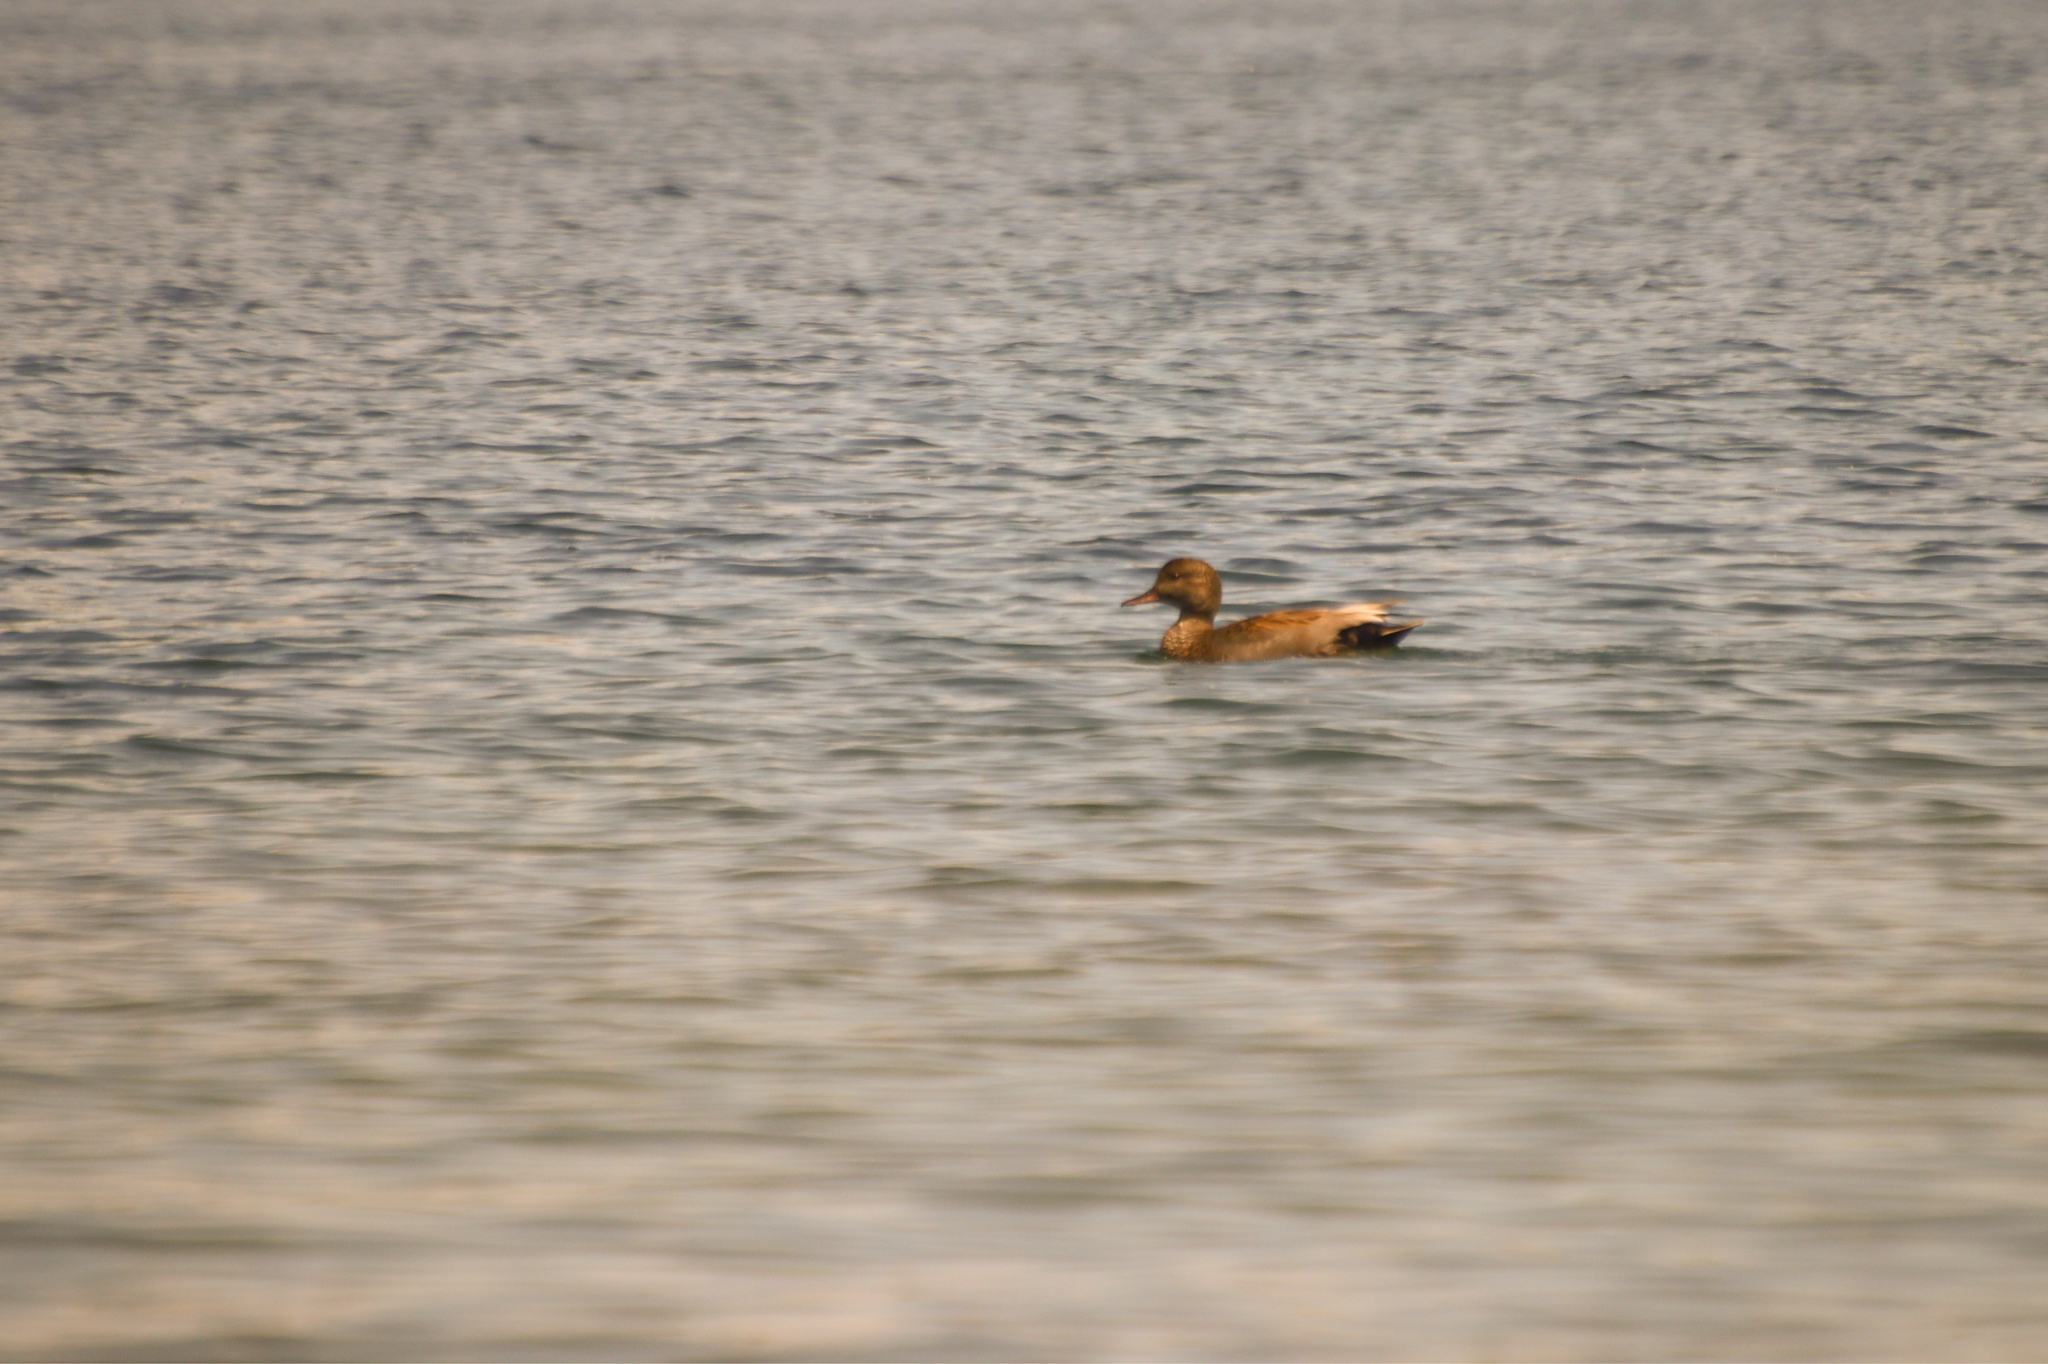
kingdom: Animalia
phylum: Chordata
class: Aves
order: Anseriformes
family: Anatidae
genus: Mareca
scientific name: Mareca strepera
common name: Gadwall
